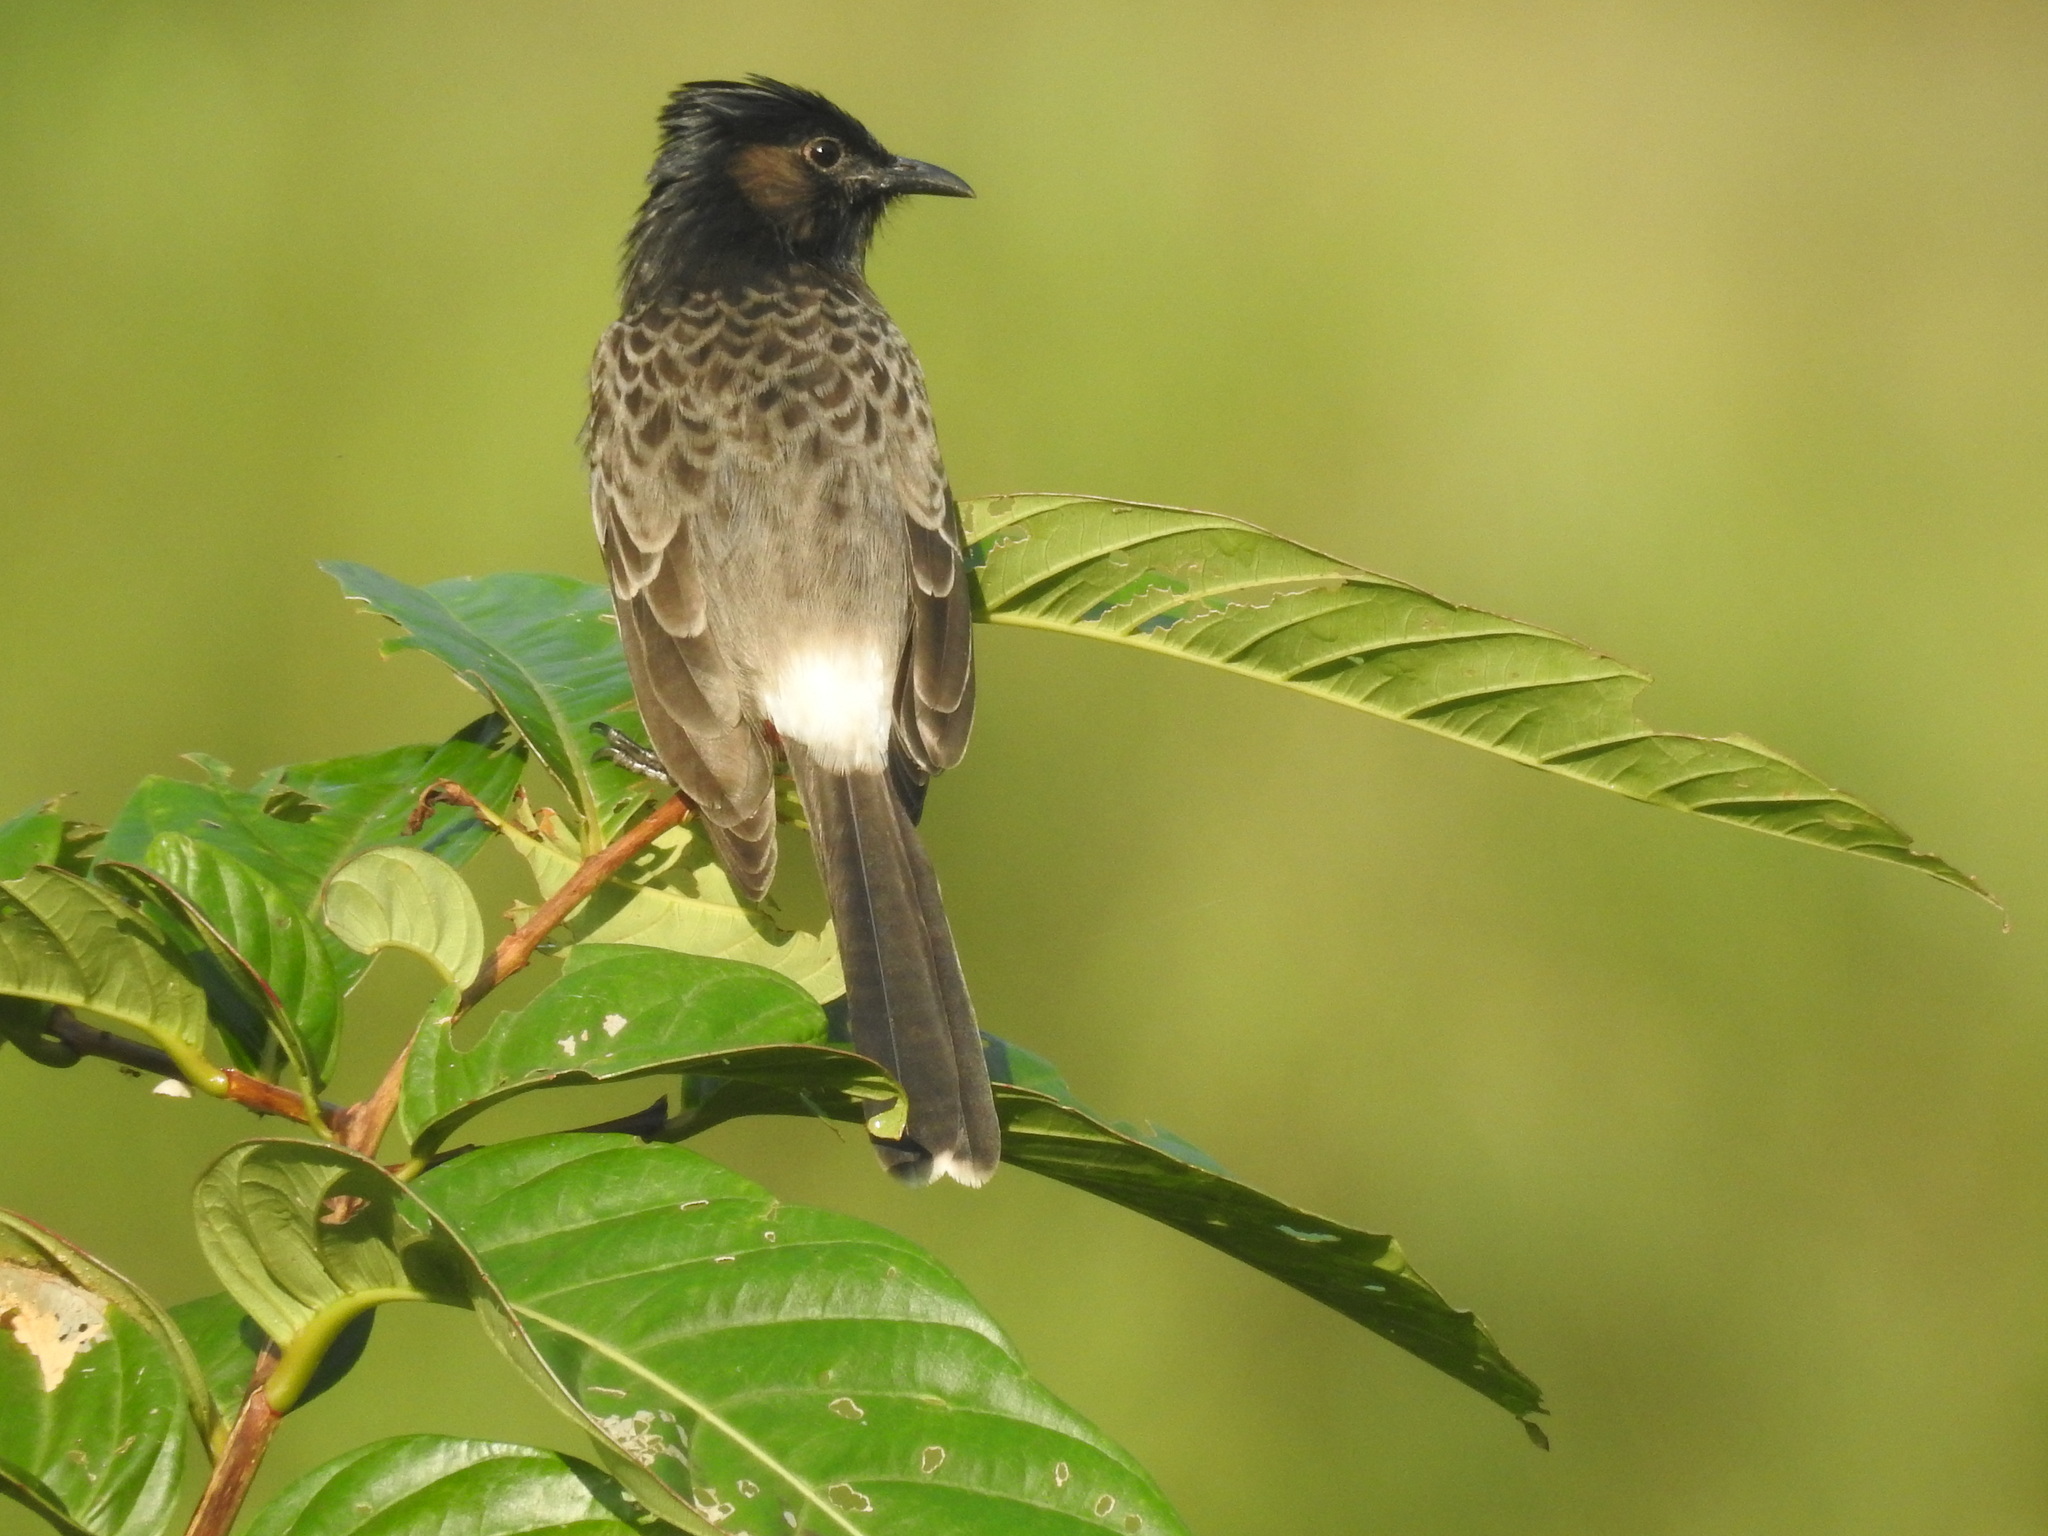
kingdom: Animalia
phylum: Chordata
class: Aves
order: Passeriformes
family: Pycnonotidae
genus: Pycnonotus
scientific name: Pycnonotus cafer
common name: Red-vented bulbul
